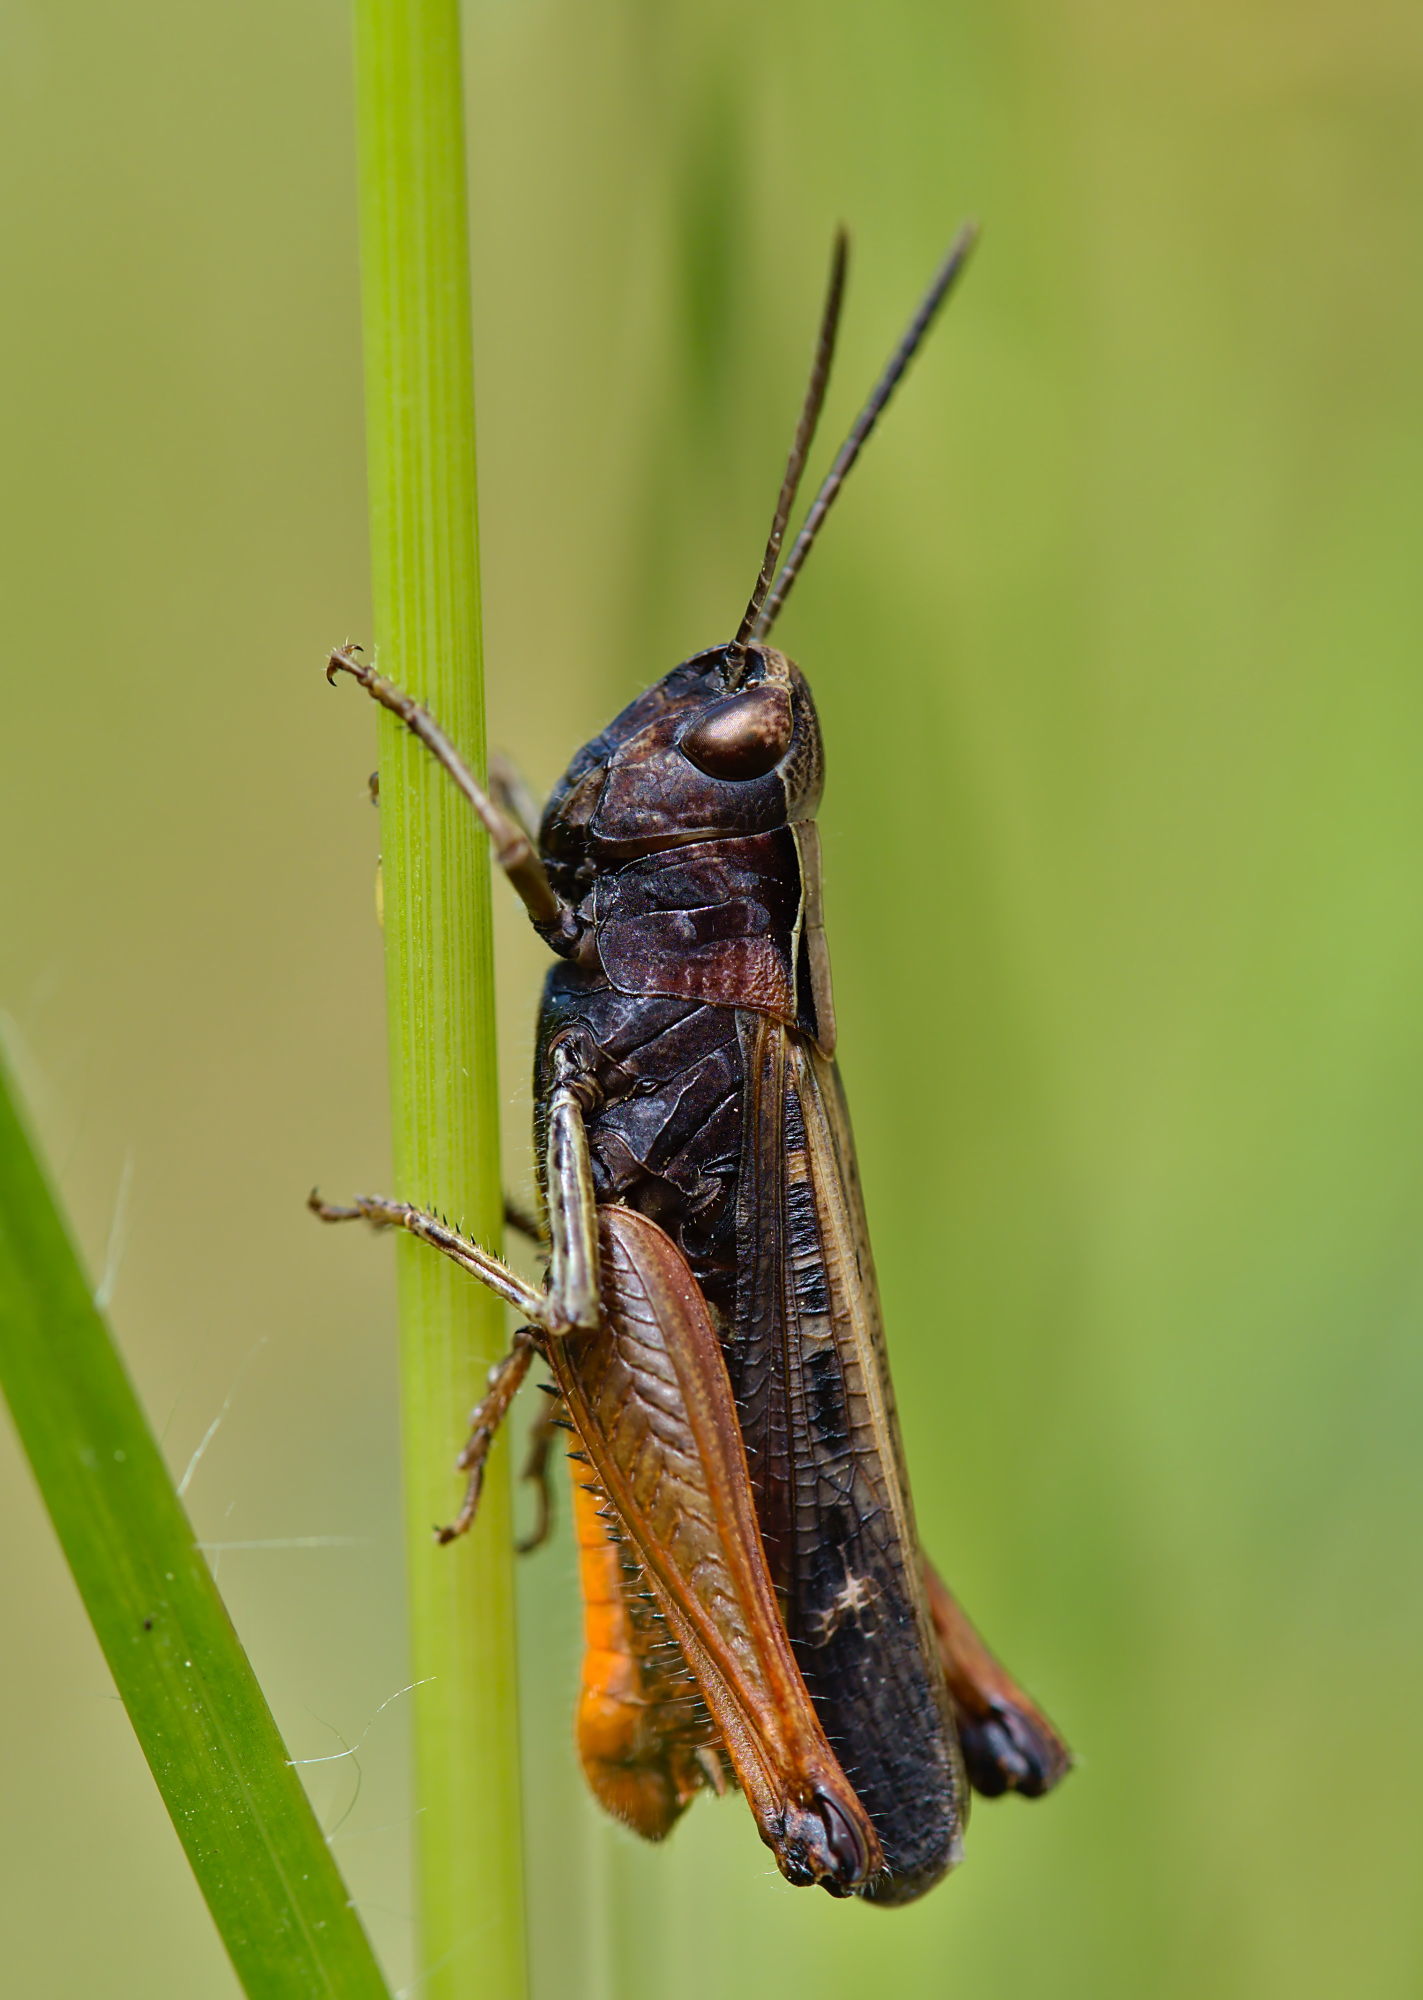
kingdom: Animalia
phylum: Arthropoda
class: Insecta
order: Orthoptera
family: Acrididae
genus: Omocestus
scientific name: Omocestus rufipes
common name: Woodland grasshopper
